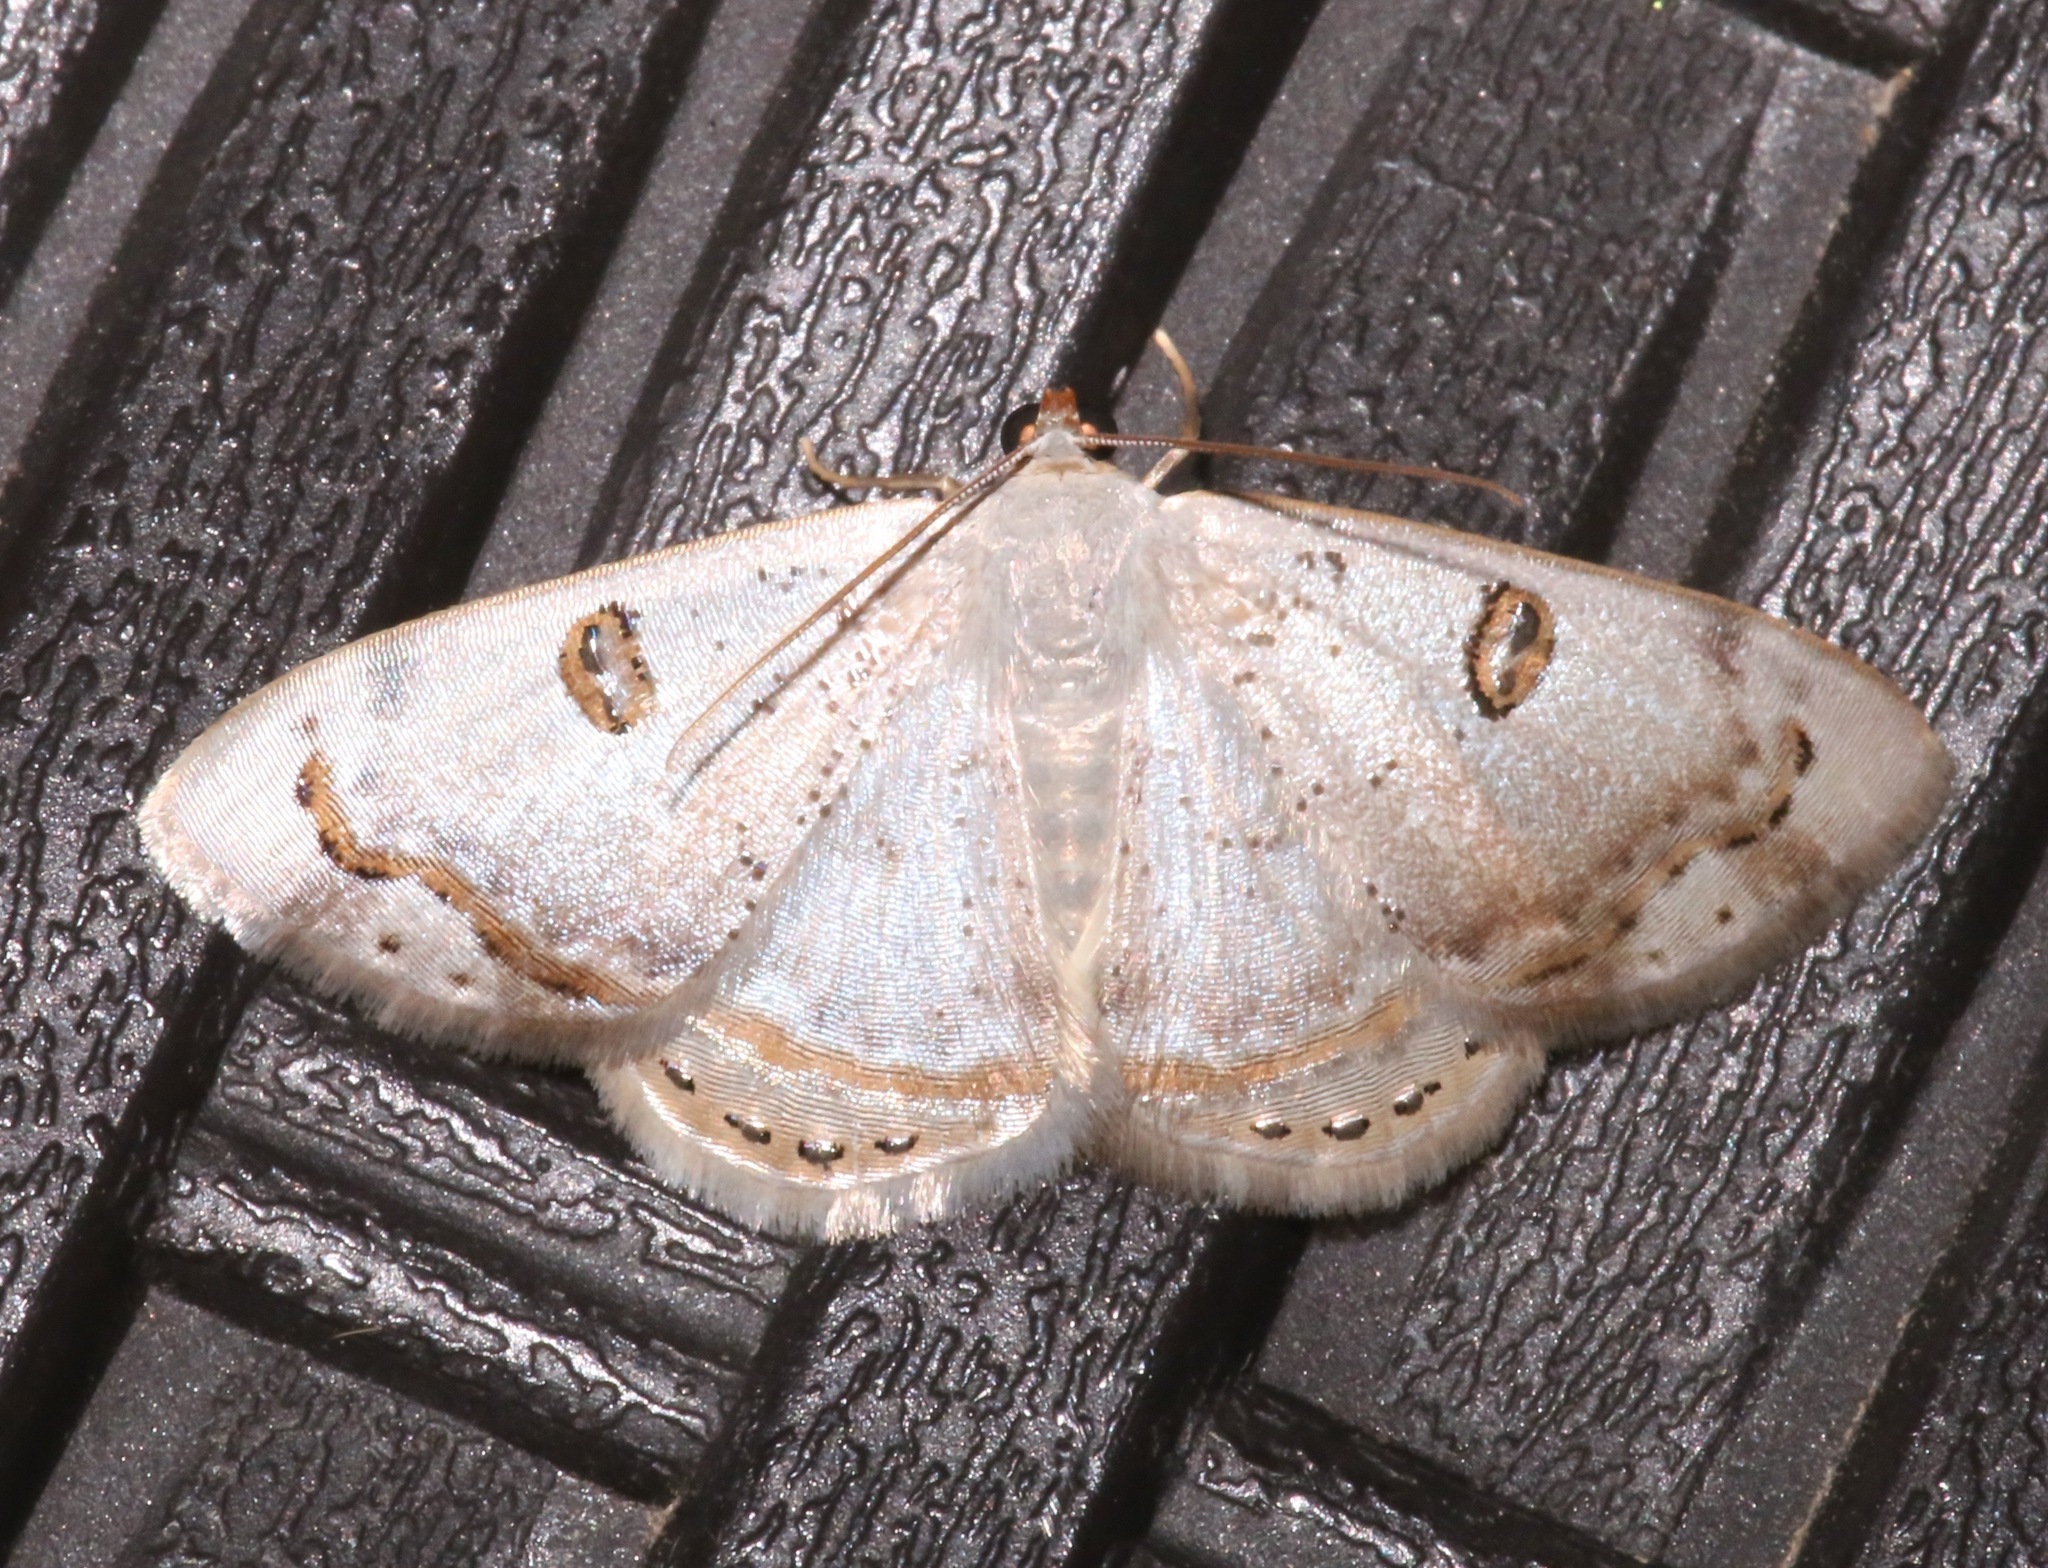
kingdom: Animalia
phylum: Arthropoda
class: Insecta
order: Lepidoptera
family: Geometridae
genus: Argyrotome
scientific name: Argyrotome prospectata
